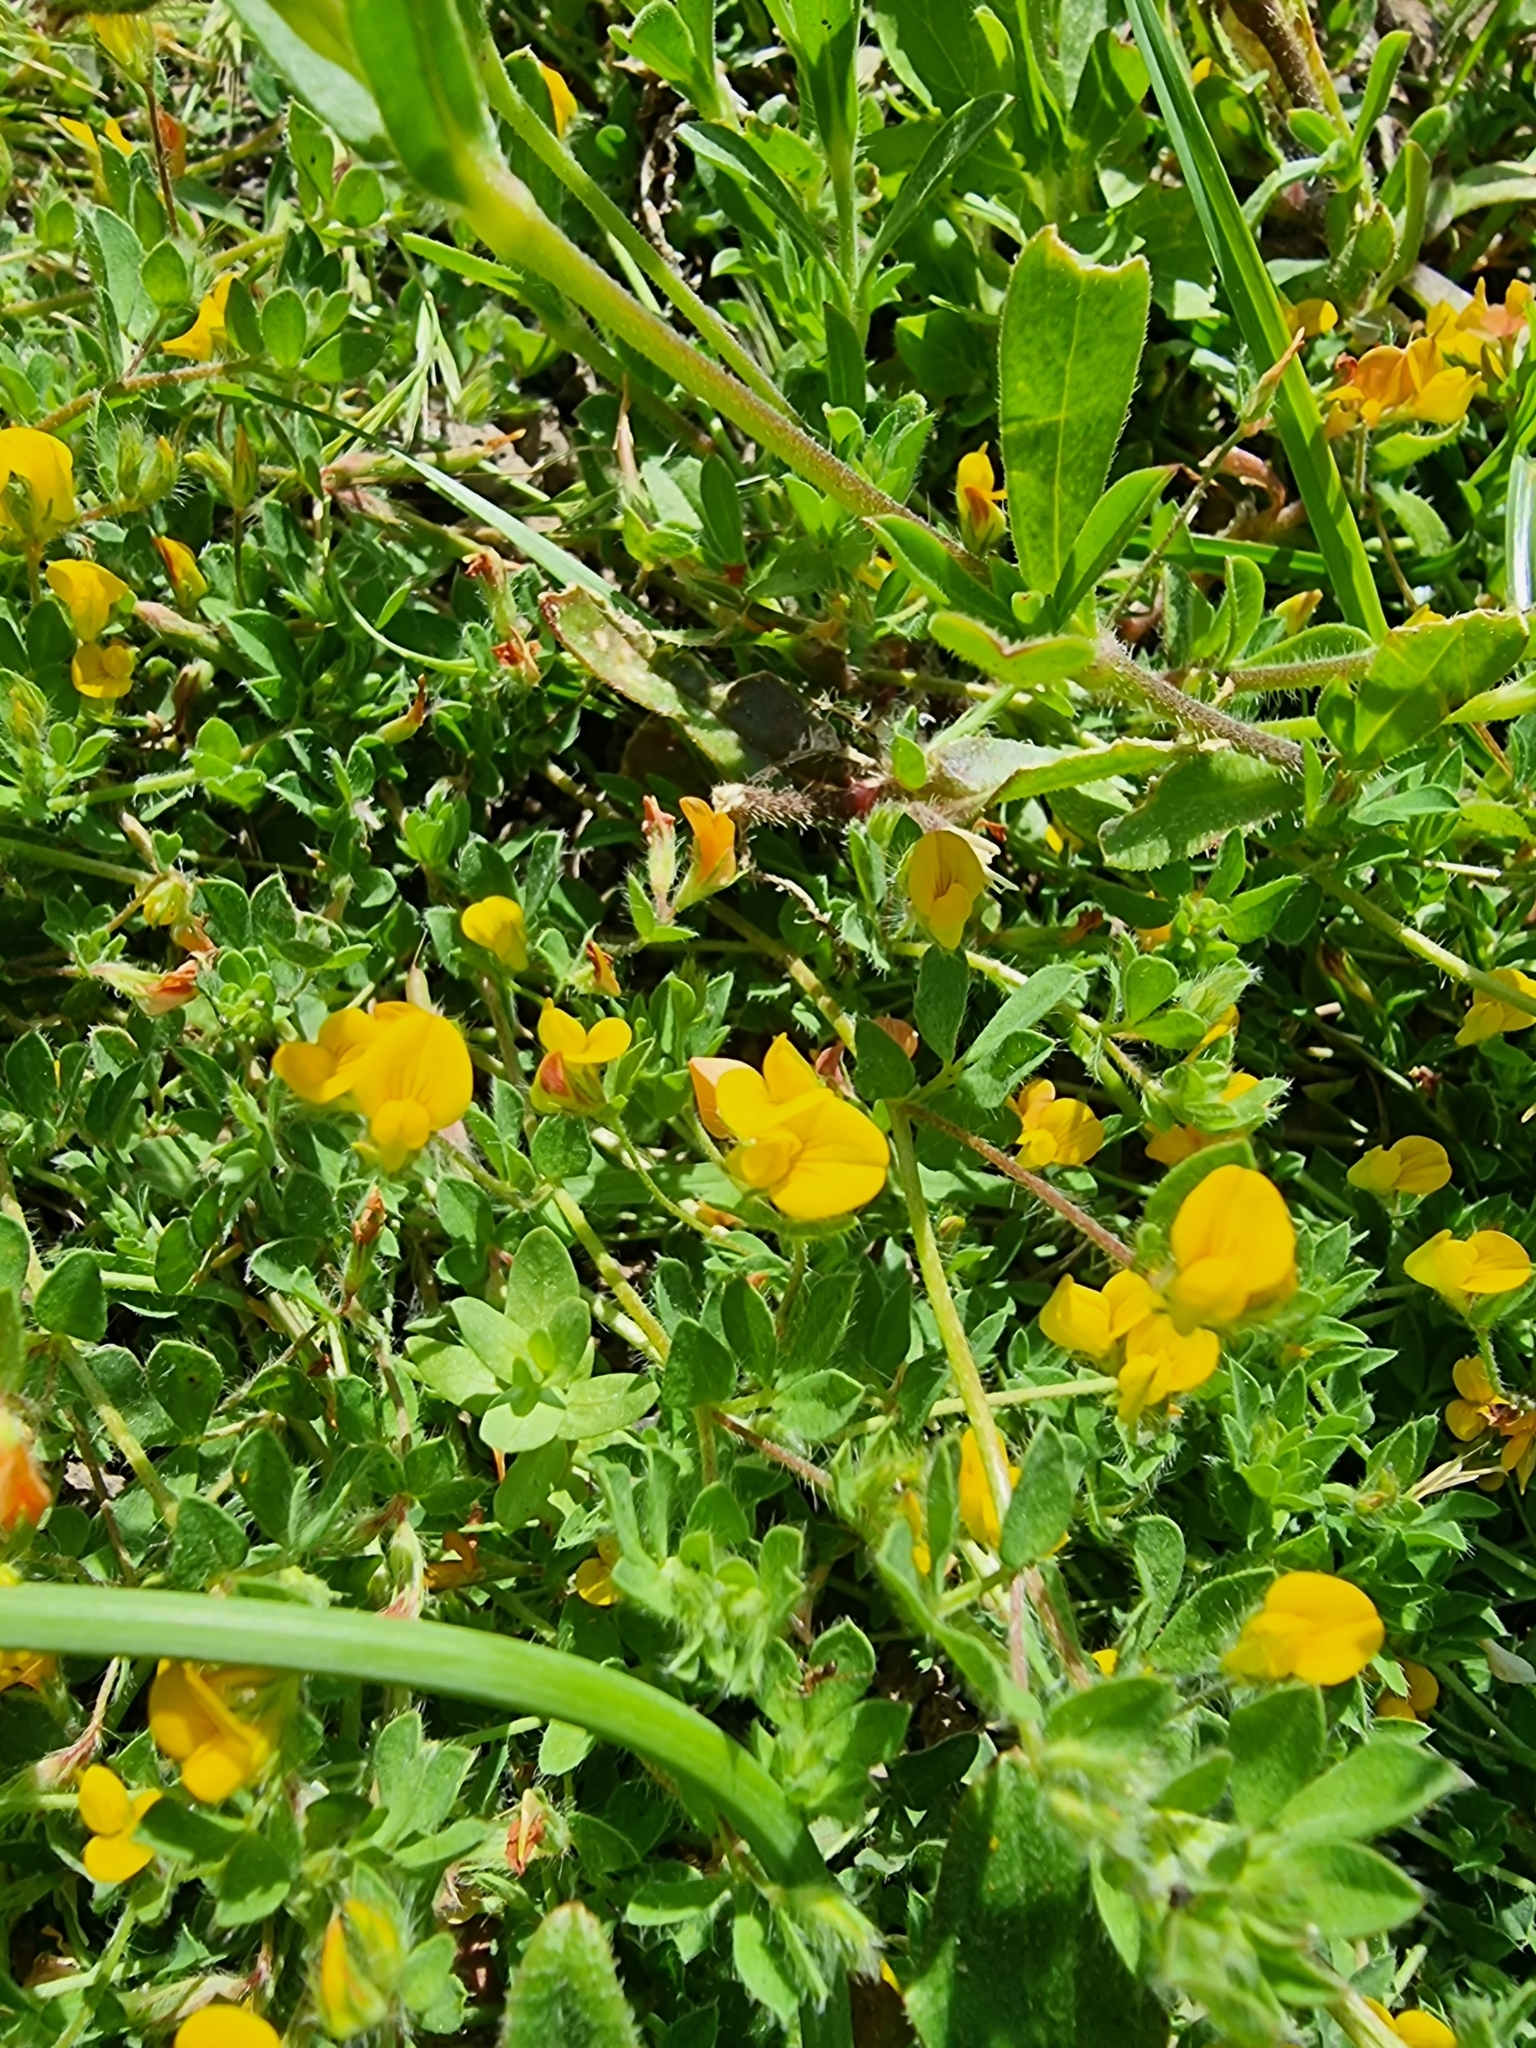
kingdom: Plantae
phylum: Tracheophyta
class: Magnoliopsida
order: Fabales
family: Fabaceae
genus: Lotus
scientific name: Lotus hispidus
